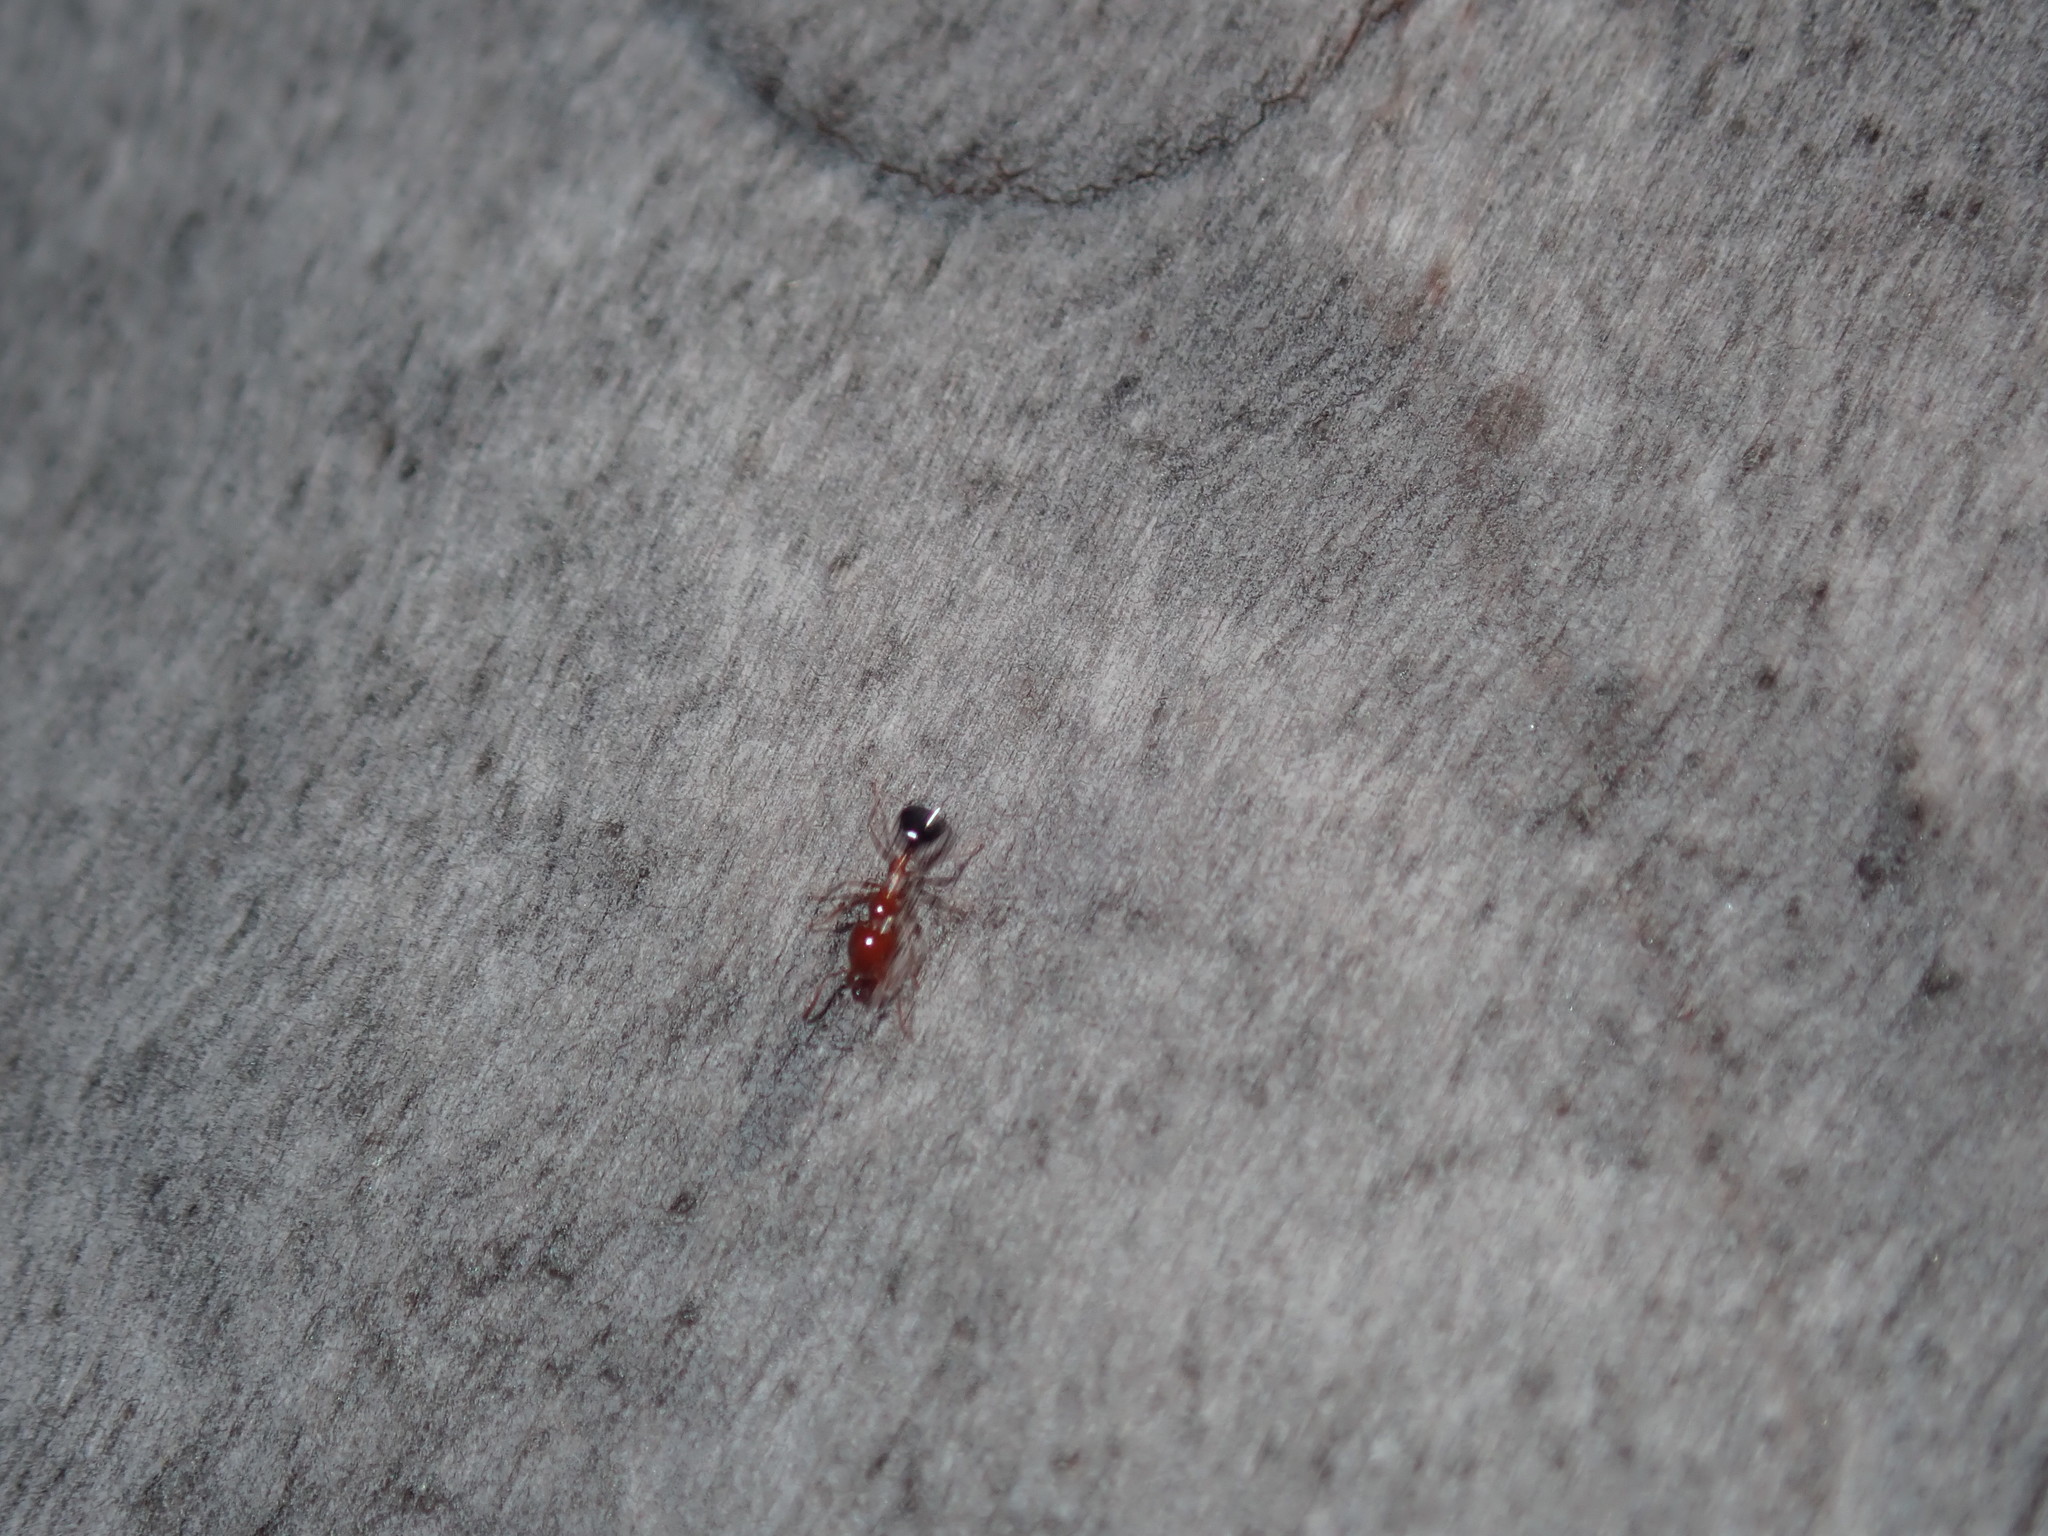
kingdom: Animalia
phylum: Arthropoda
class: Insecta
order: Hymenoptera
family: Formicidae
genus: Froggattella
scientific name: Froggattella kirbii
